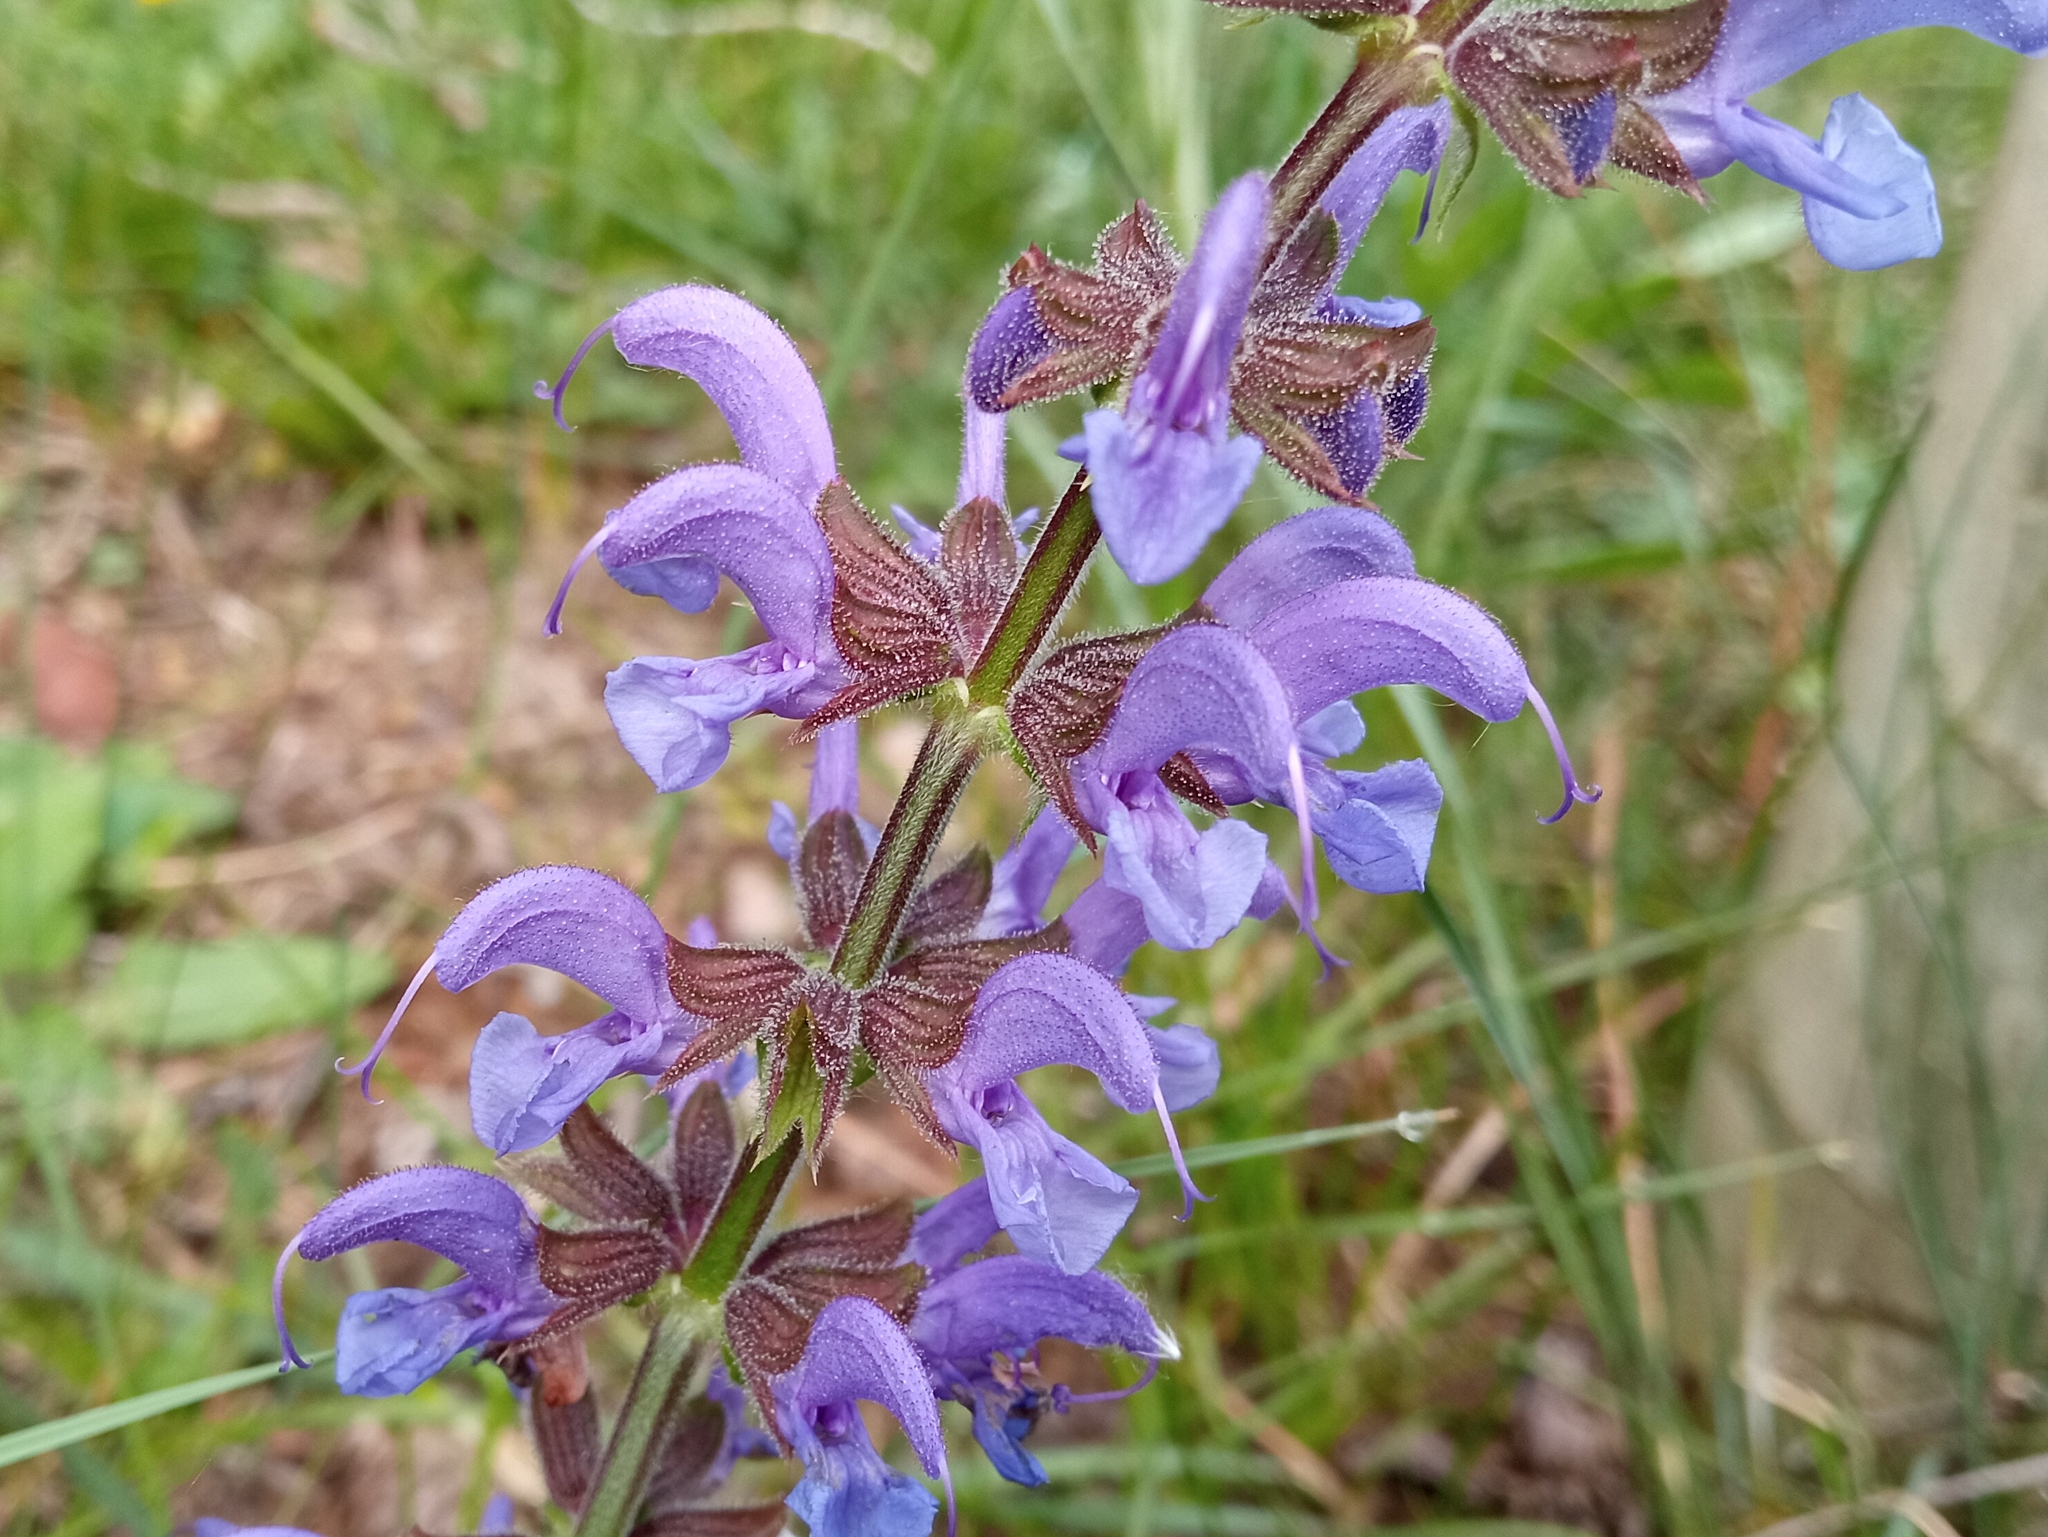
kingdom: Plantae
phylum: Tracheophyta
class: Magnoliopsida
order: Lamiales
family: Lamiaceae
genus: Salvia
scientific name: Salvia pratensis
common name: Meadow sage
